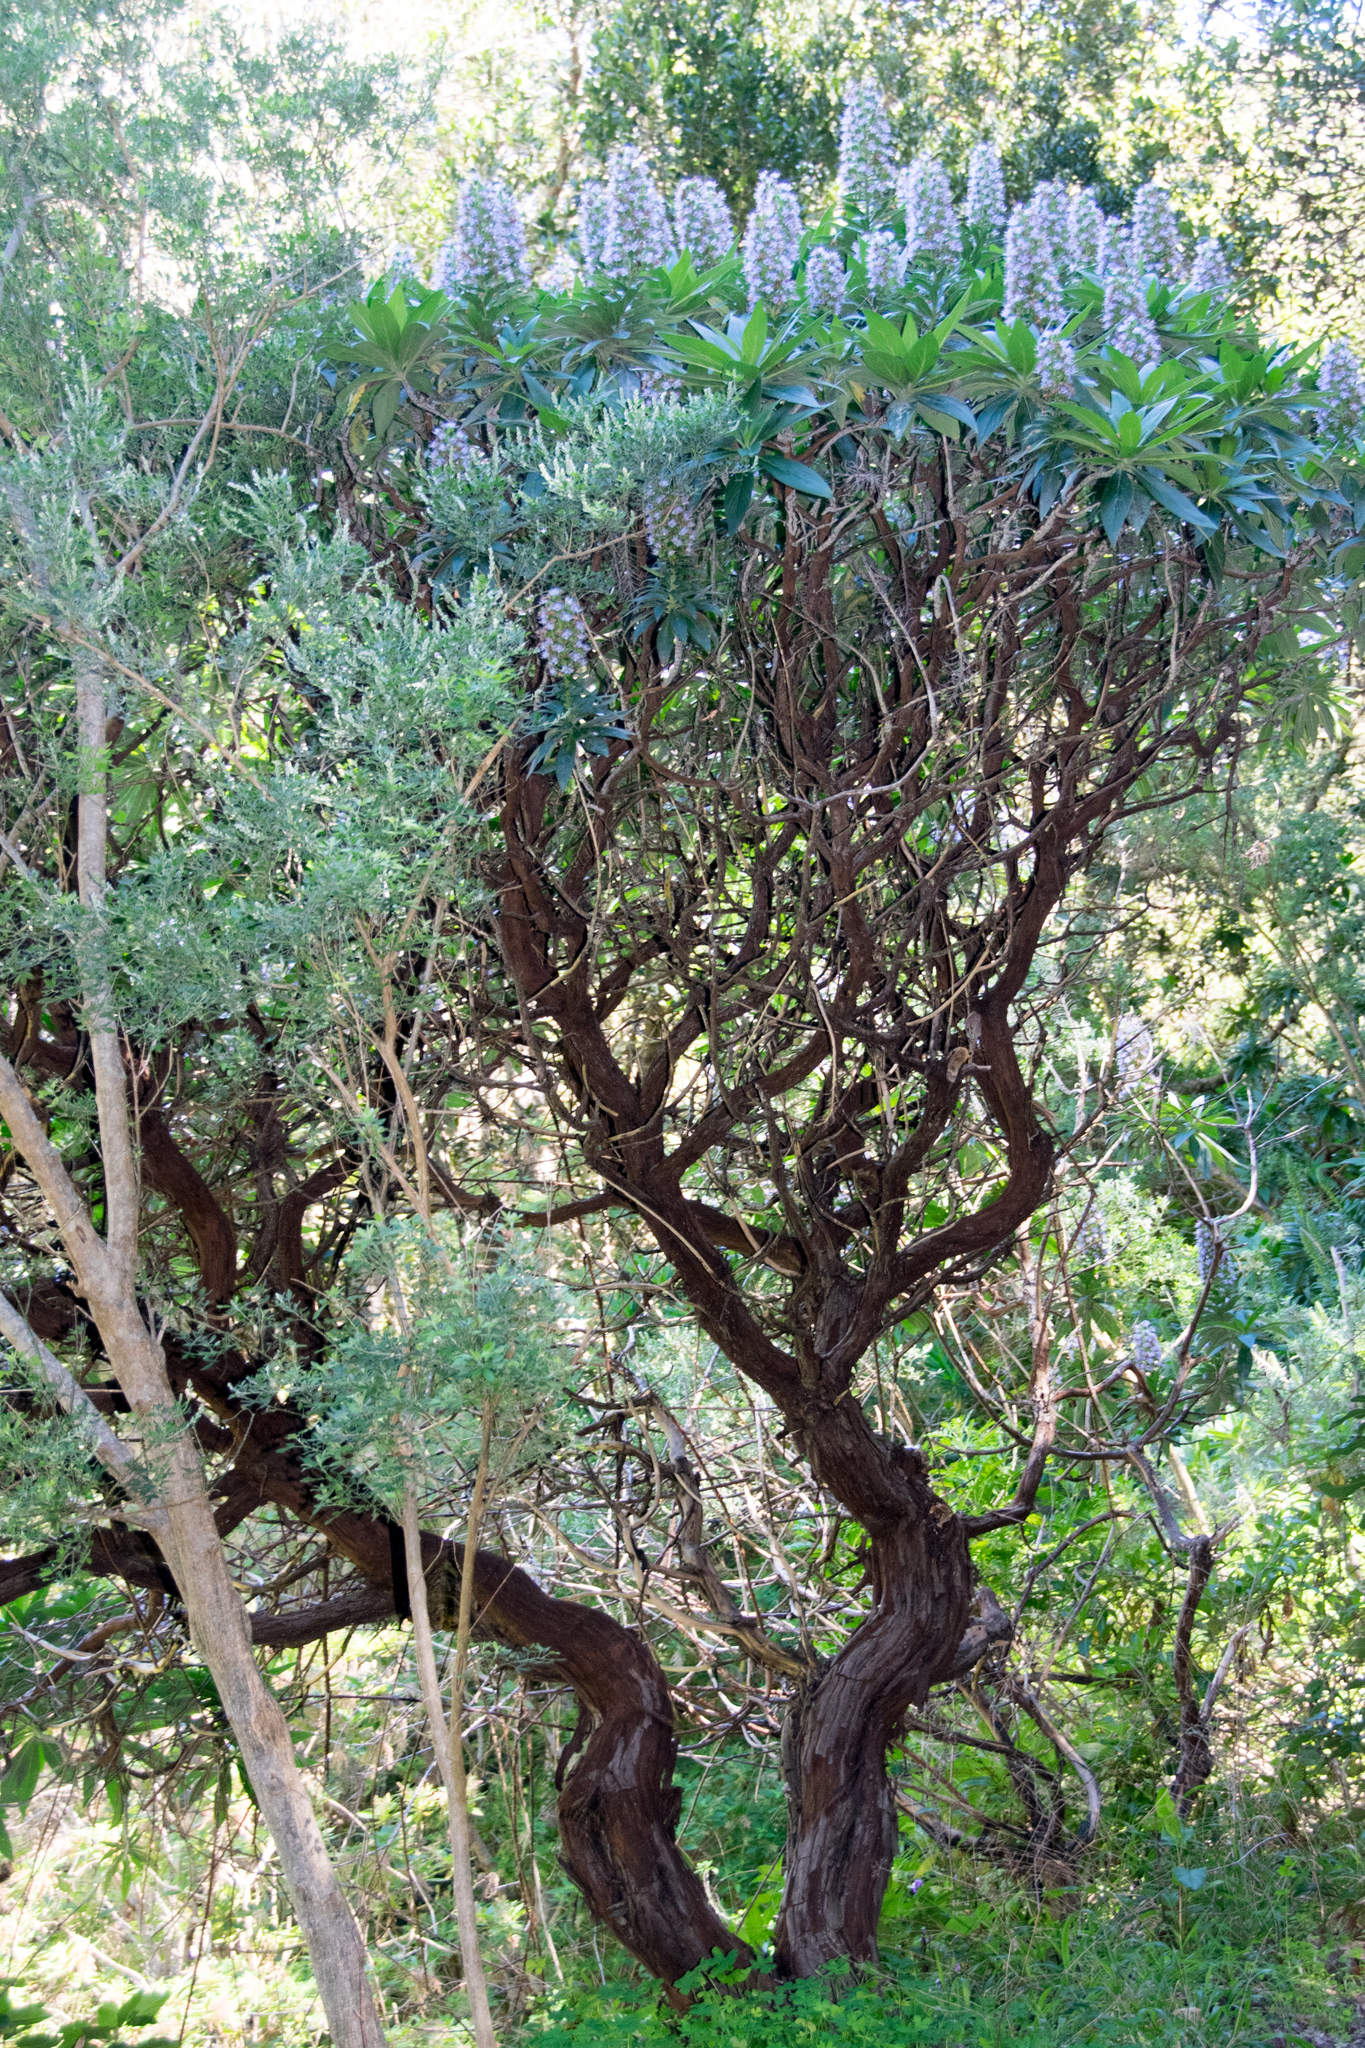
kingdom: Plantae
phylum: Tracheophyta
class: Magnoliopsida
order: Boraginales
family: Boraginaceae
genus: Echium
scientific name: Echium acanthocarpum
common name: Blue bugloss
